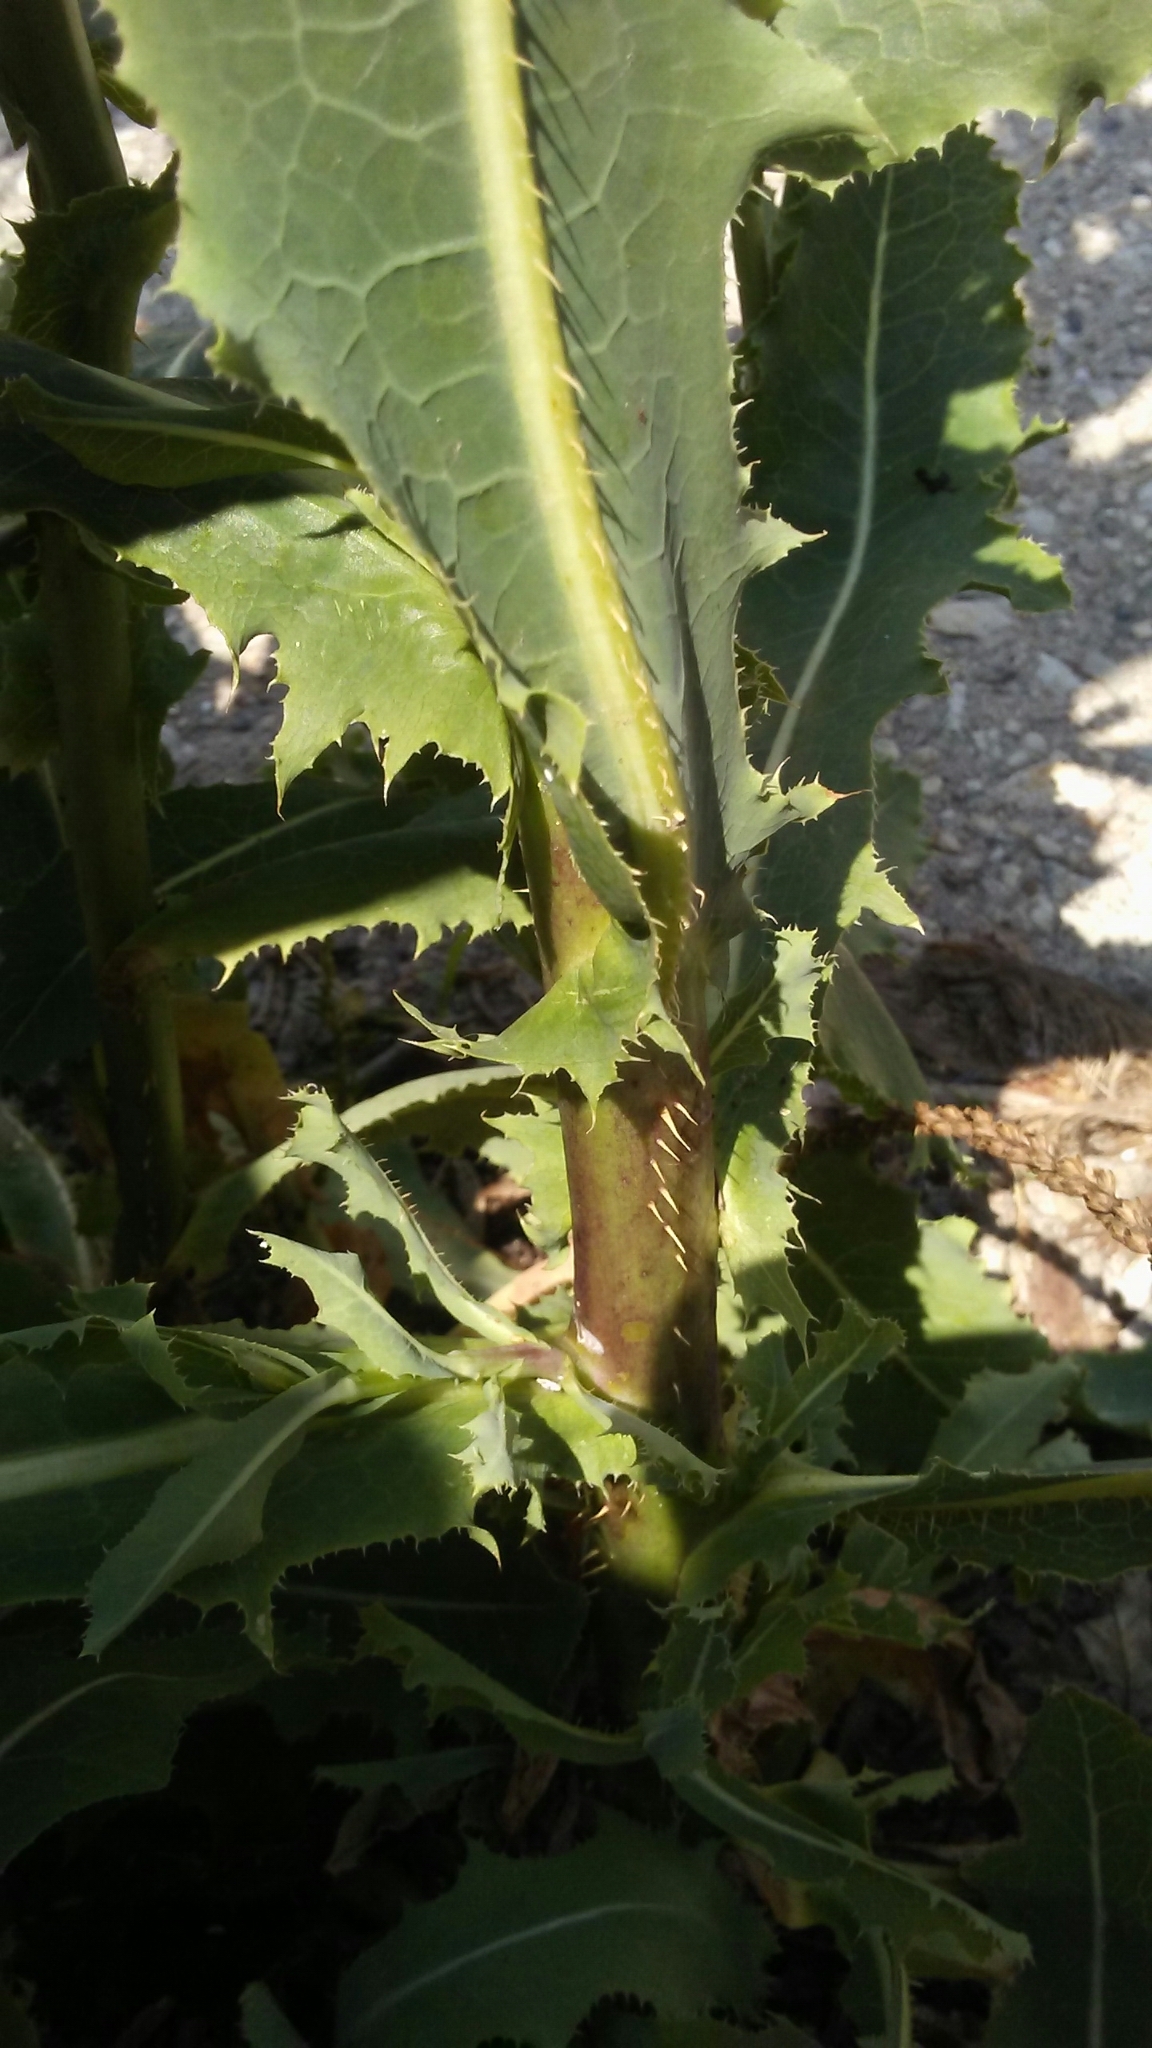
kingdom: Plantae
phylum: Tracheophyta
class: Magnoliopsida
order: Asterales
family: Asteraceae
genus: Lactuca
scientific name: Lactuca serriola
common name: Prickly lettuce
